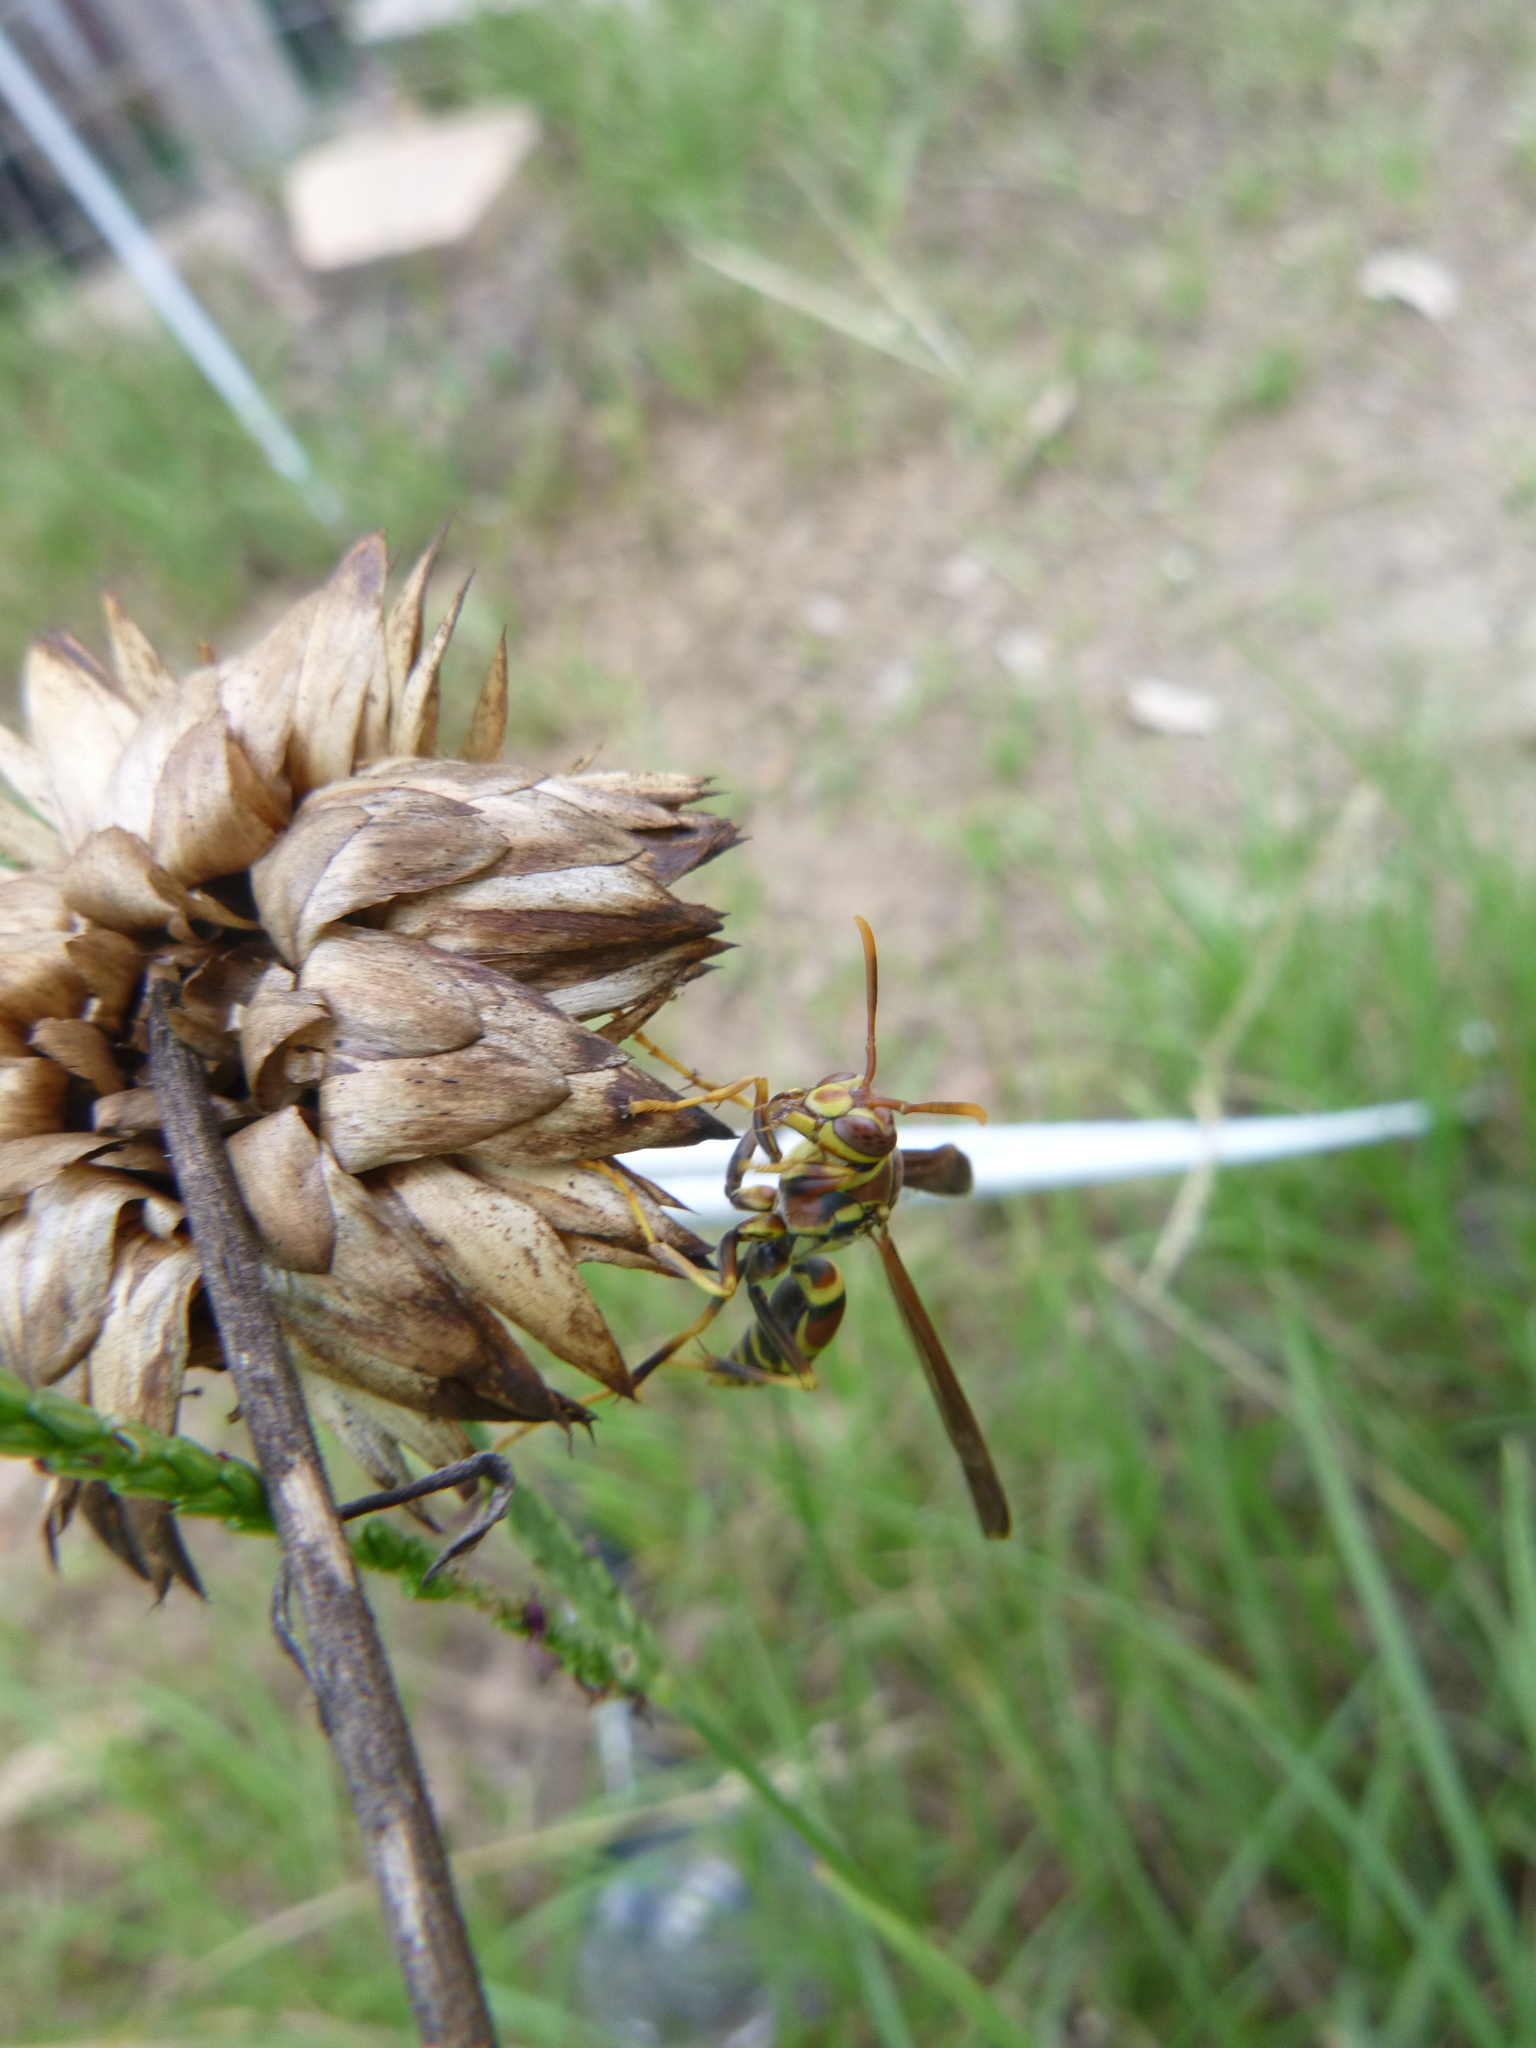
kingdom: Animalia
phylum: Arthropoda
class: Insecta
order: Hymenoptera
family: Eumenidae
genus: Polistes
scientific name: Polistes exclamans
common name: Paper wasp
